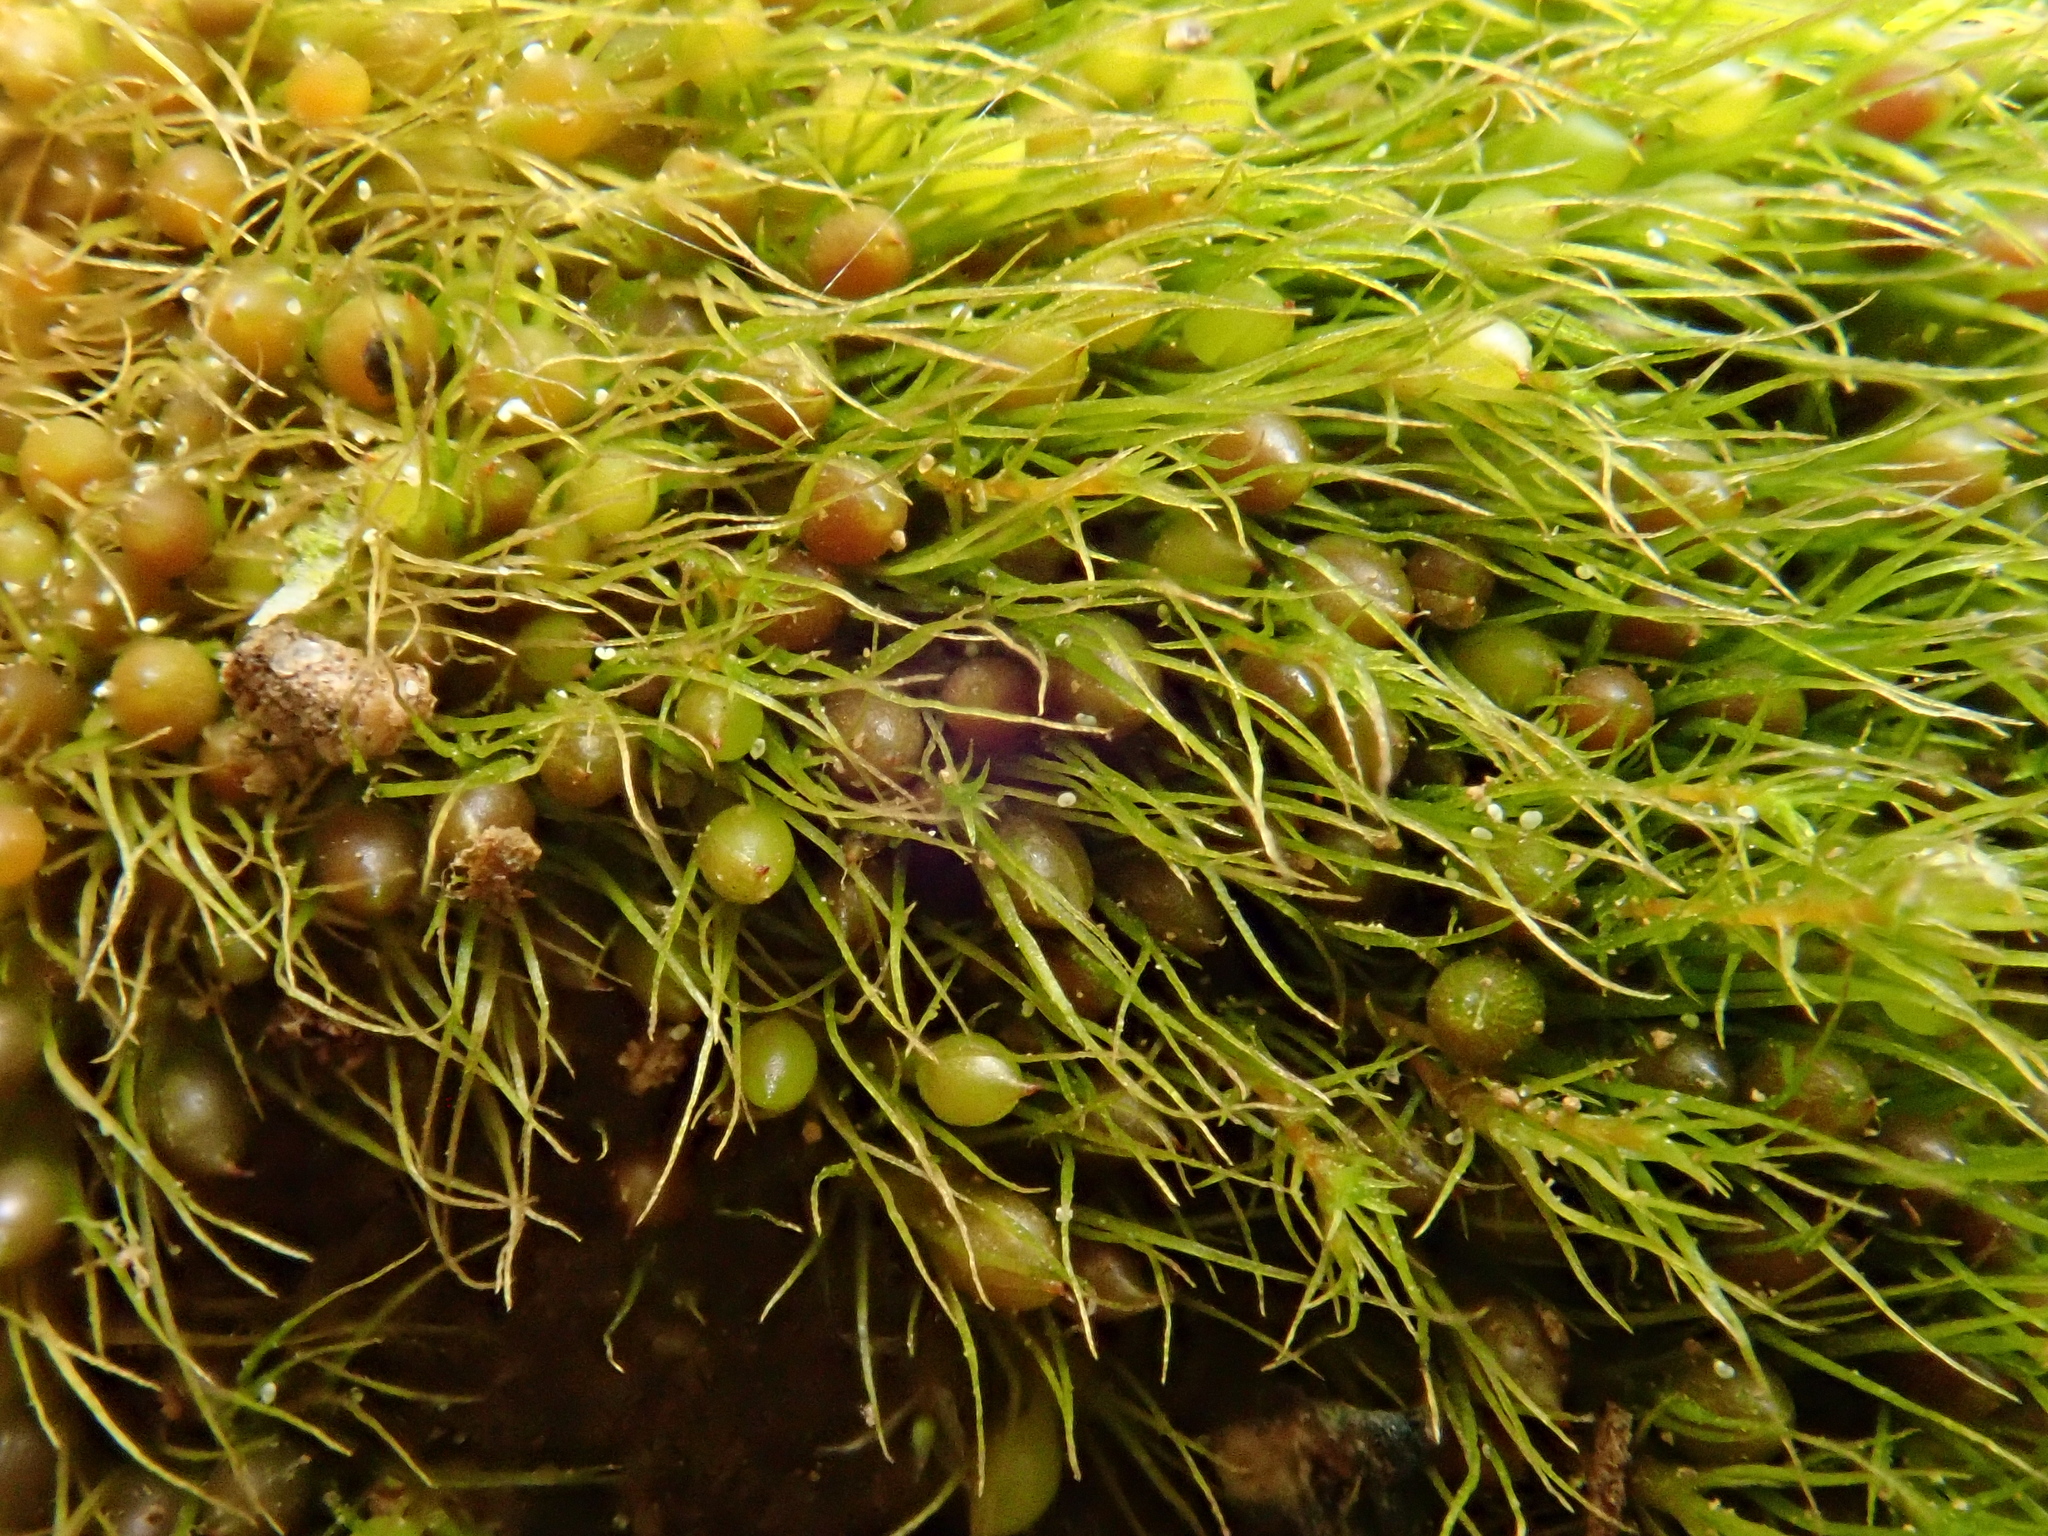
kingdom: Plantae
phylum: Bryophyta
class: Bryopsida
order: Dicranales
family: Ditrichaceae
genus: Pleuridium
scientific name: Pleuridium subulatum
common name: Awl-leaved earth-moss
